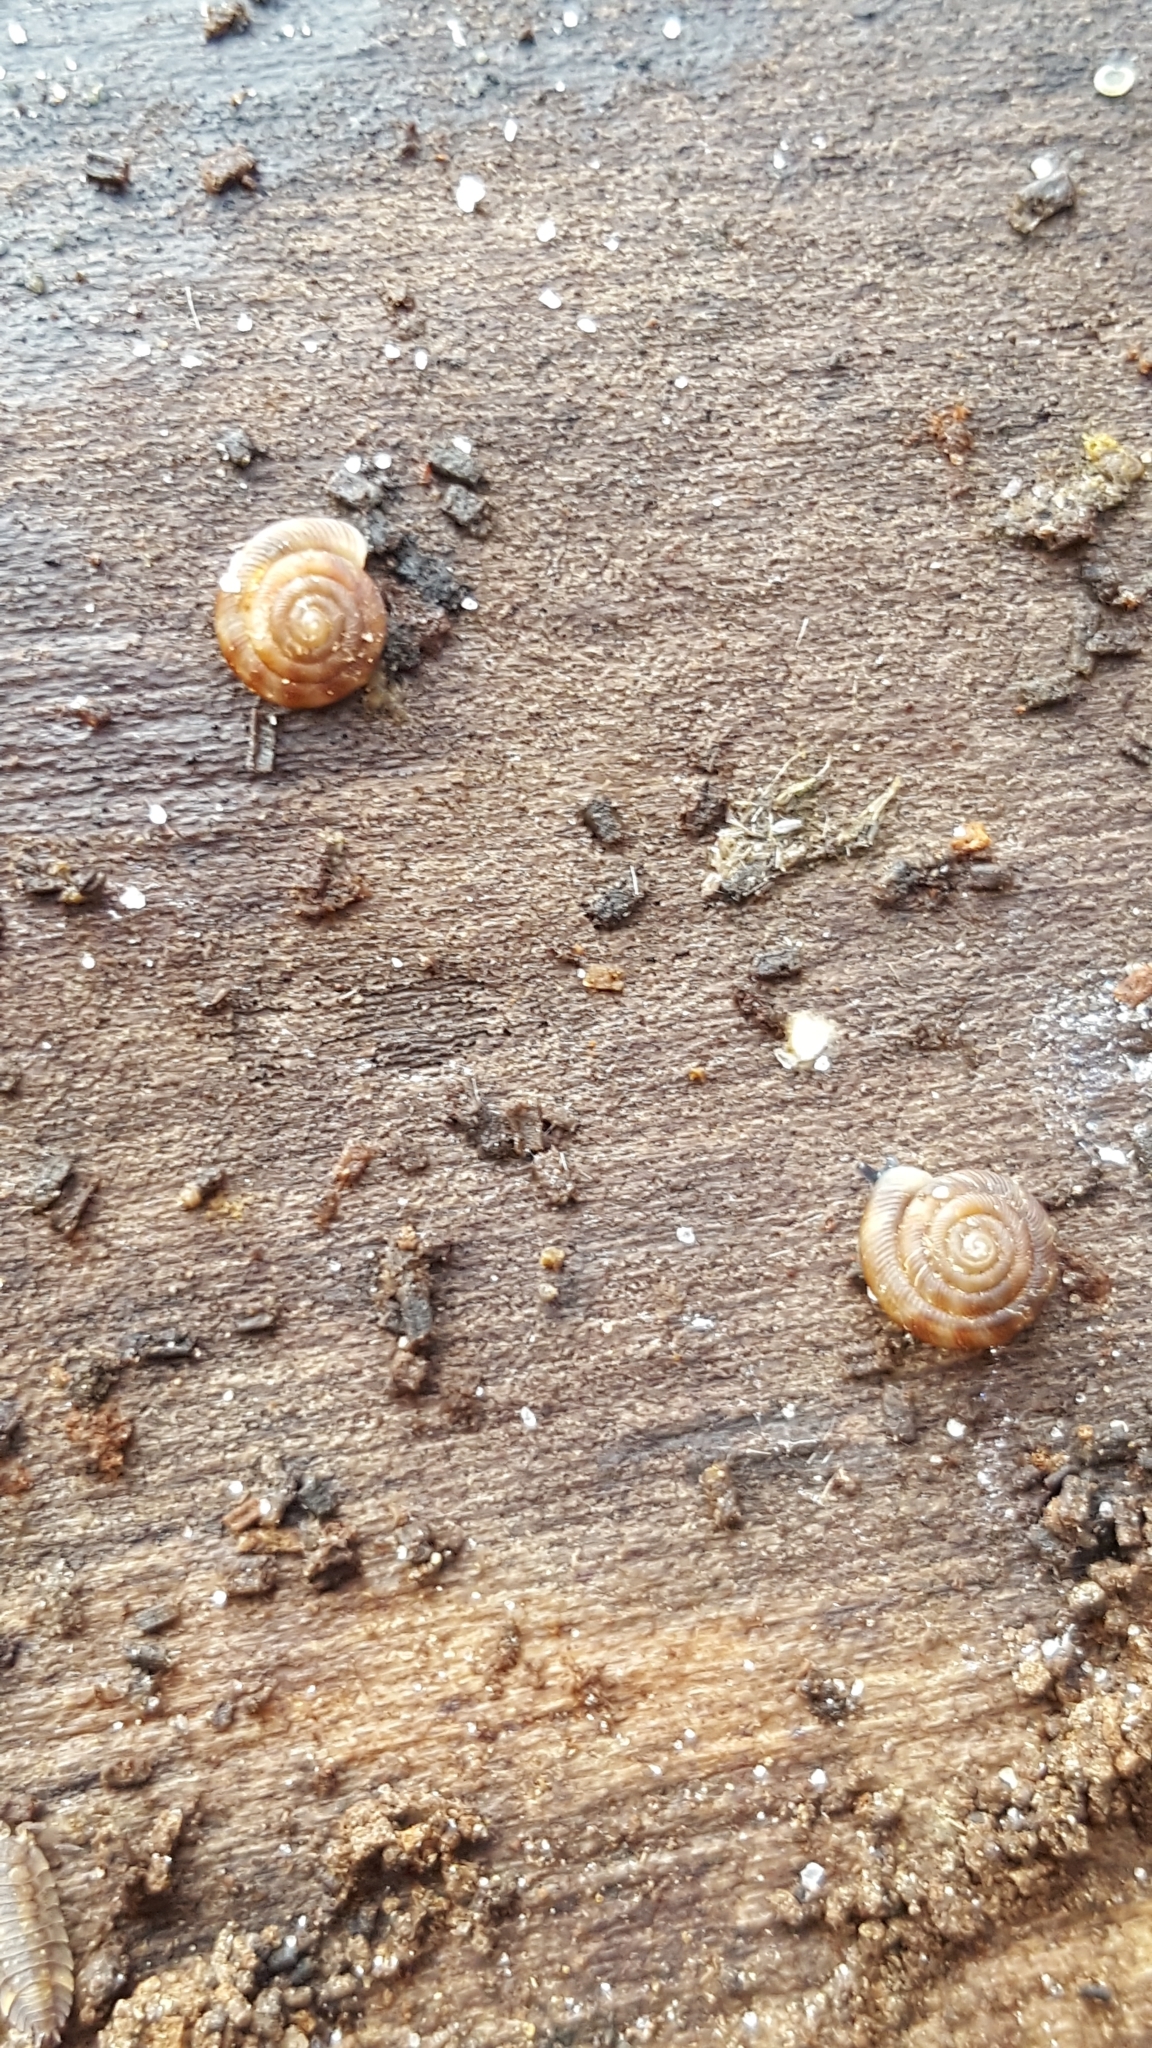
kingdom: Animalia
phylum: Mollusca
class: Gastropoda
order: Stylommatophora
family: Discidae
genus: Discus
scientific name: Discus rotundatus
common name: Rounded snail
